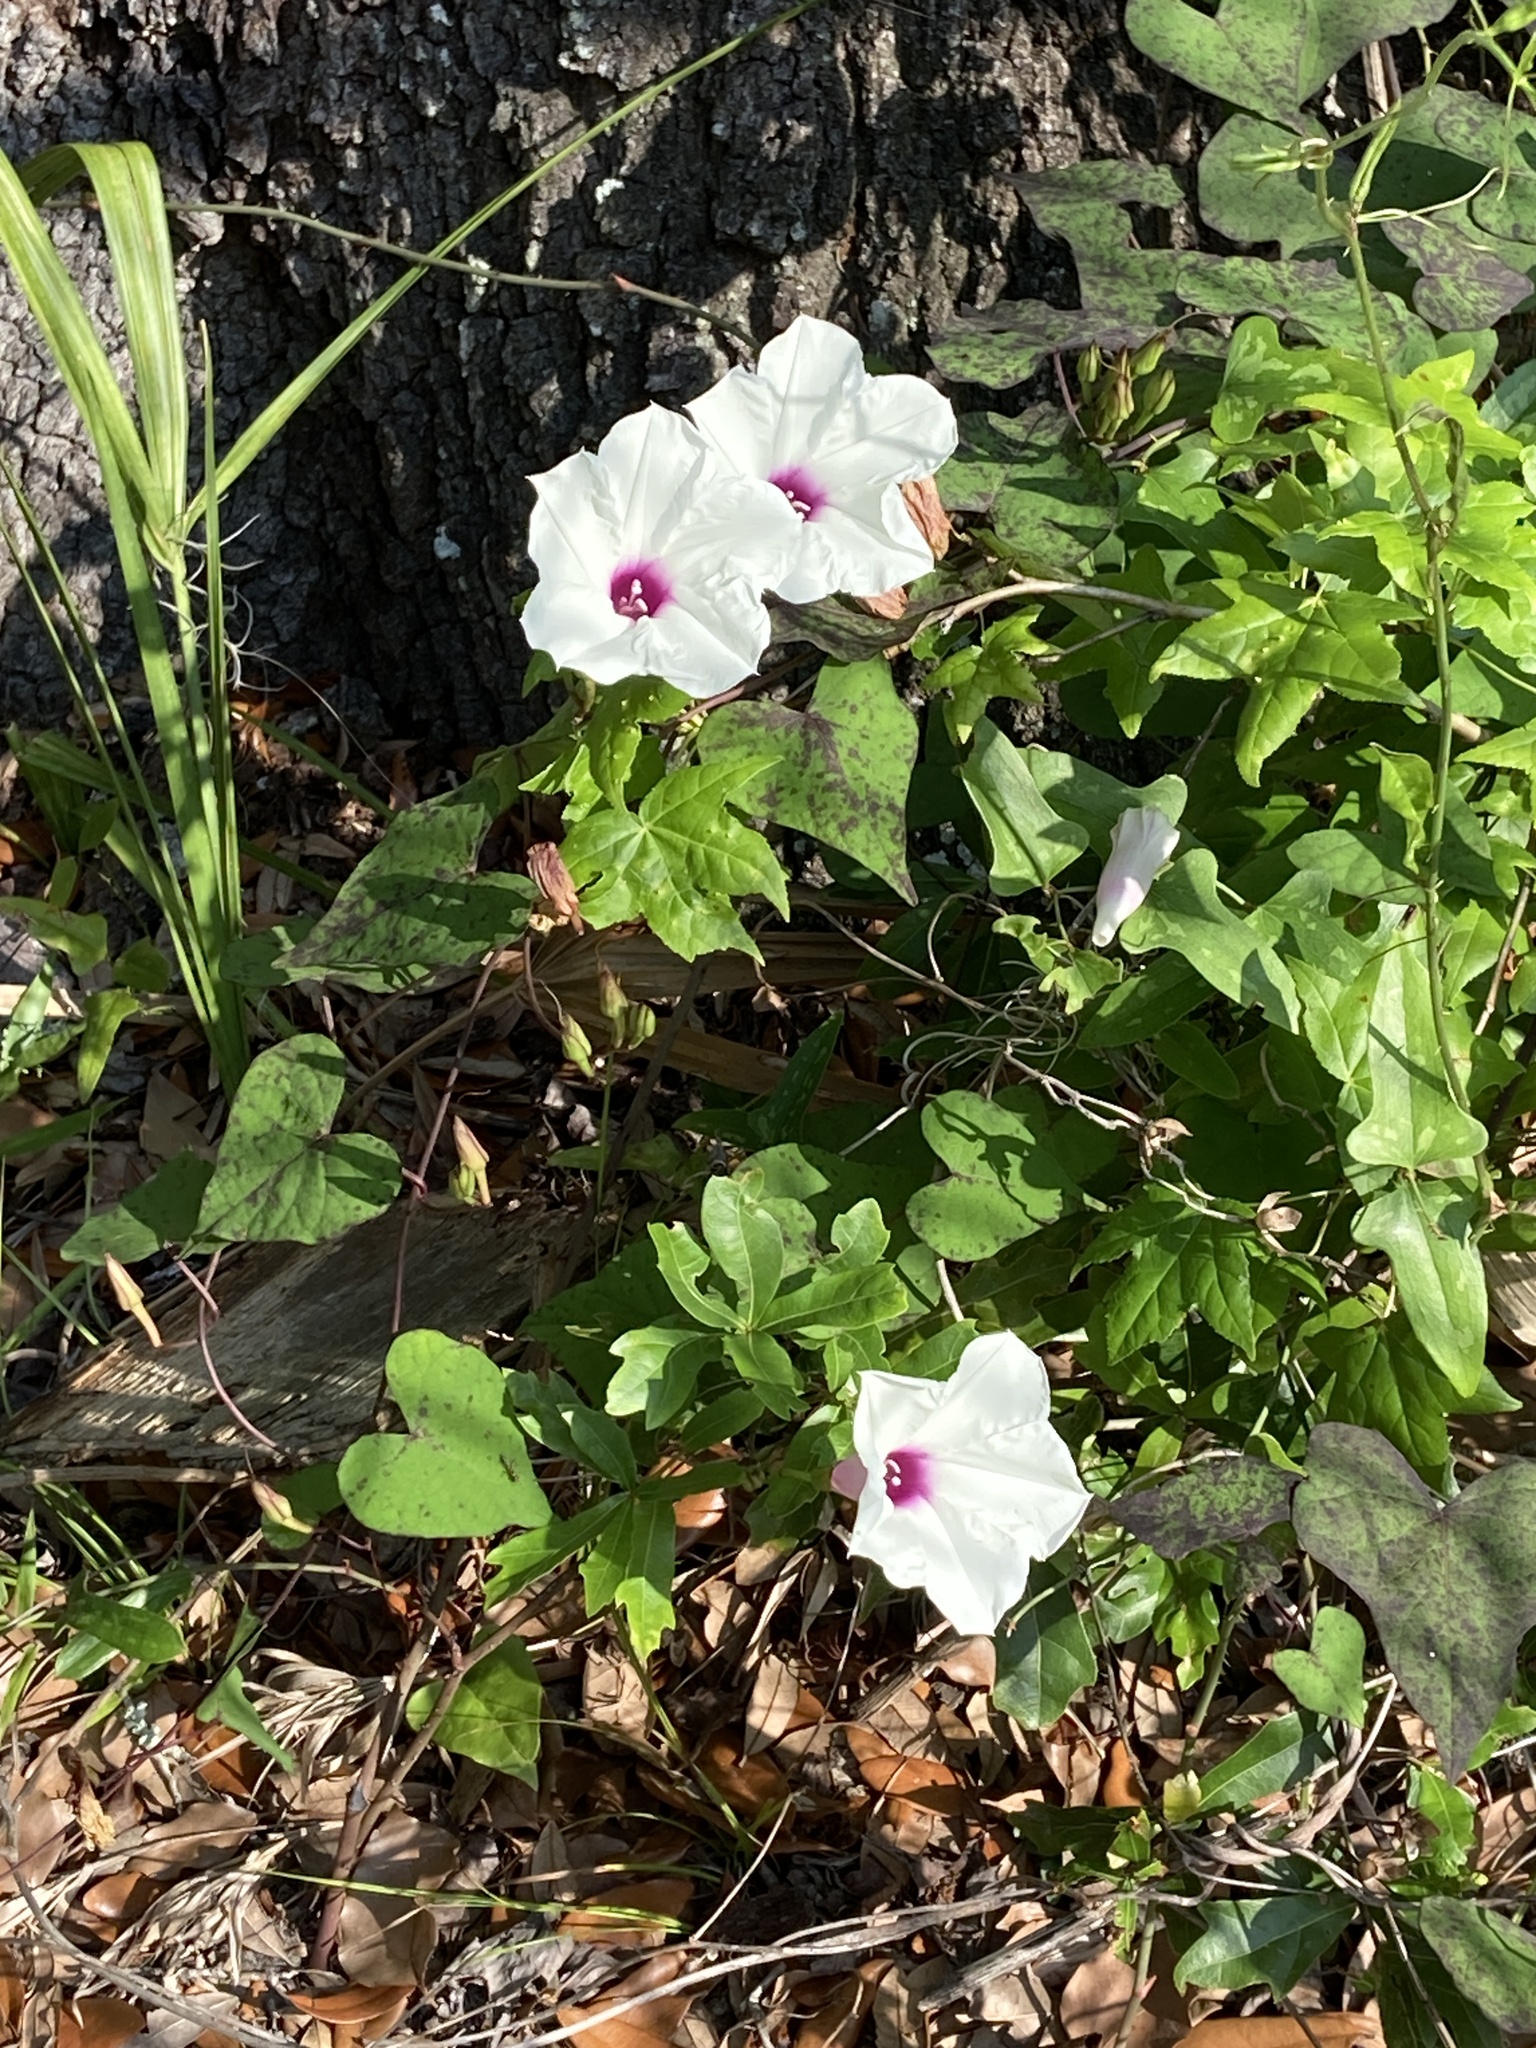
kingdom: Plantae
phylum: Tracheophyta
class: Magnoliopsida
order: Solanales
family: Convolvulaceae
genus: Ipomoea
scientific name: Ipomoea pandurata
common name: Man-of-the-earth
